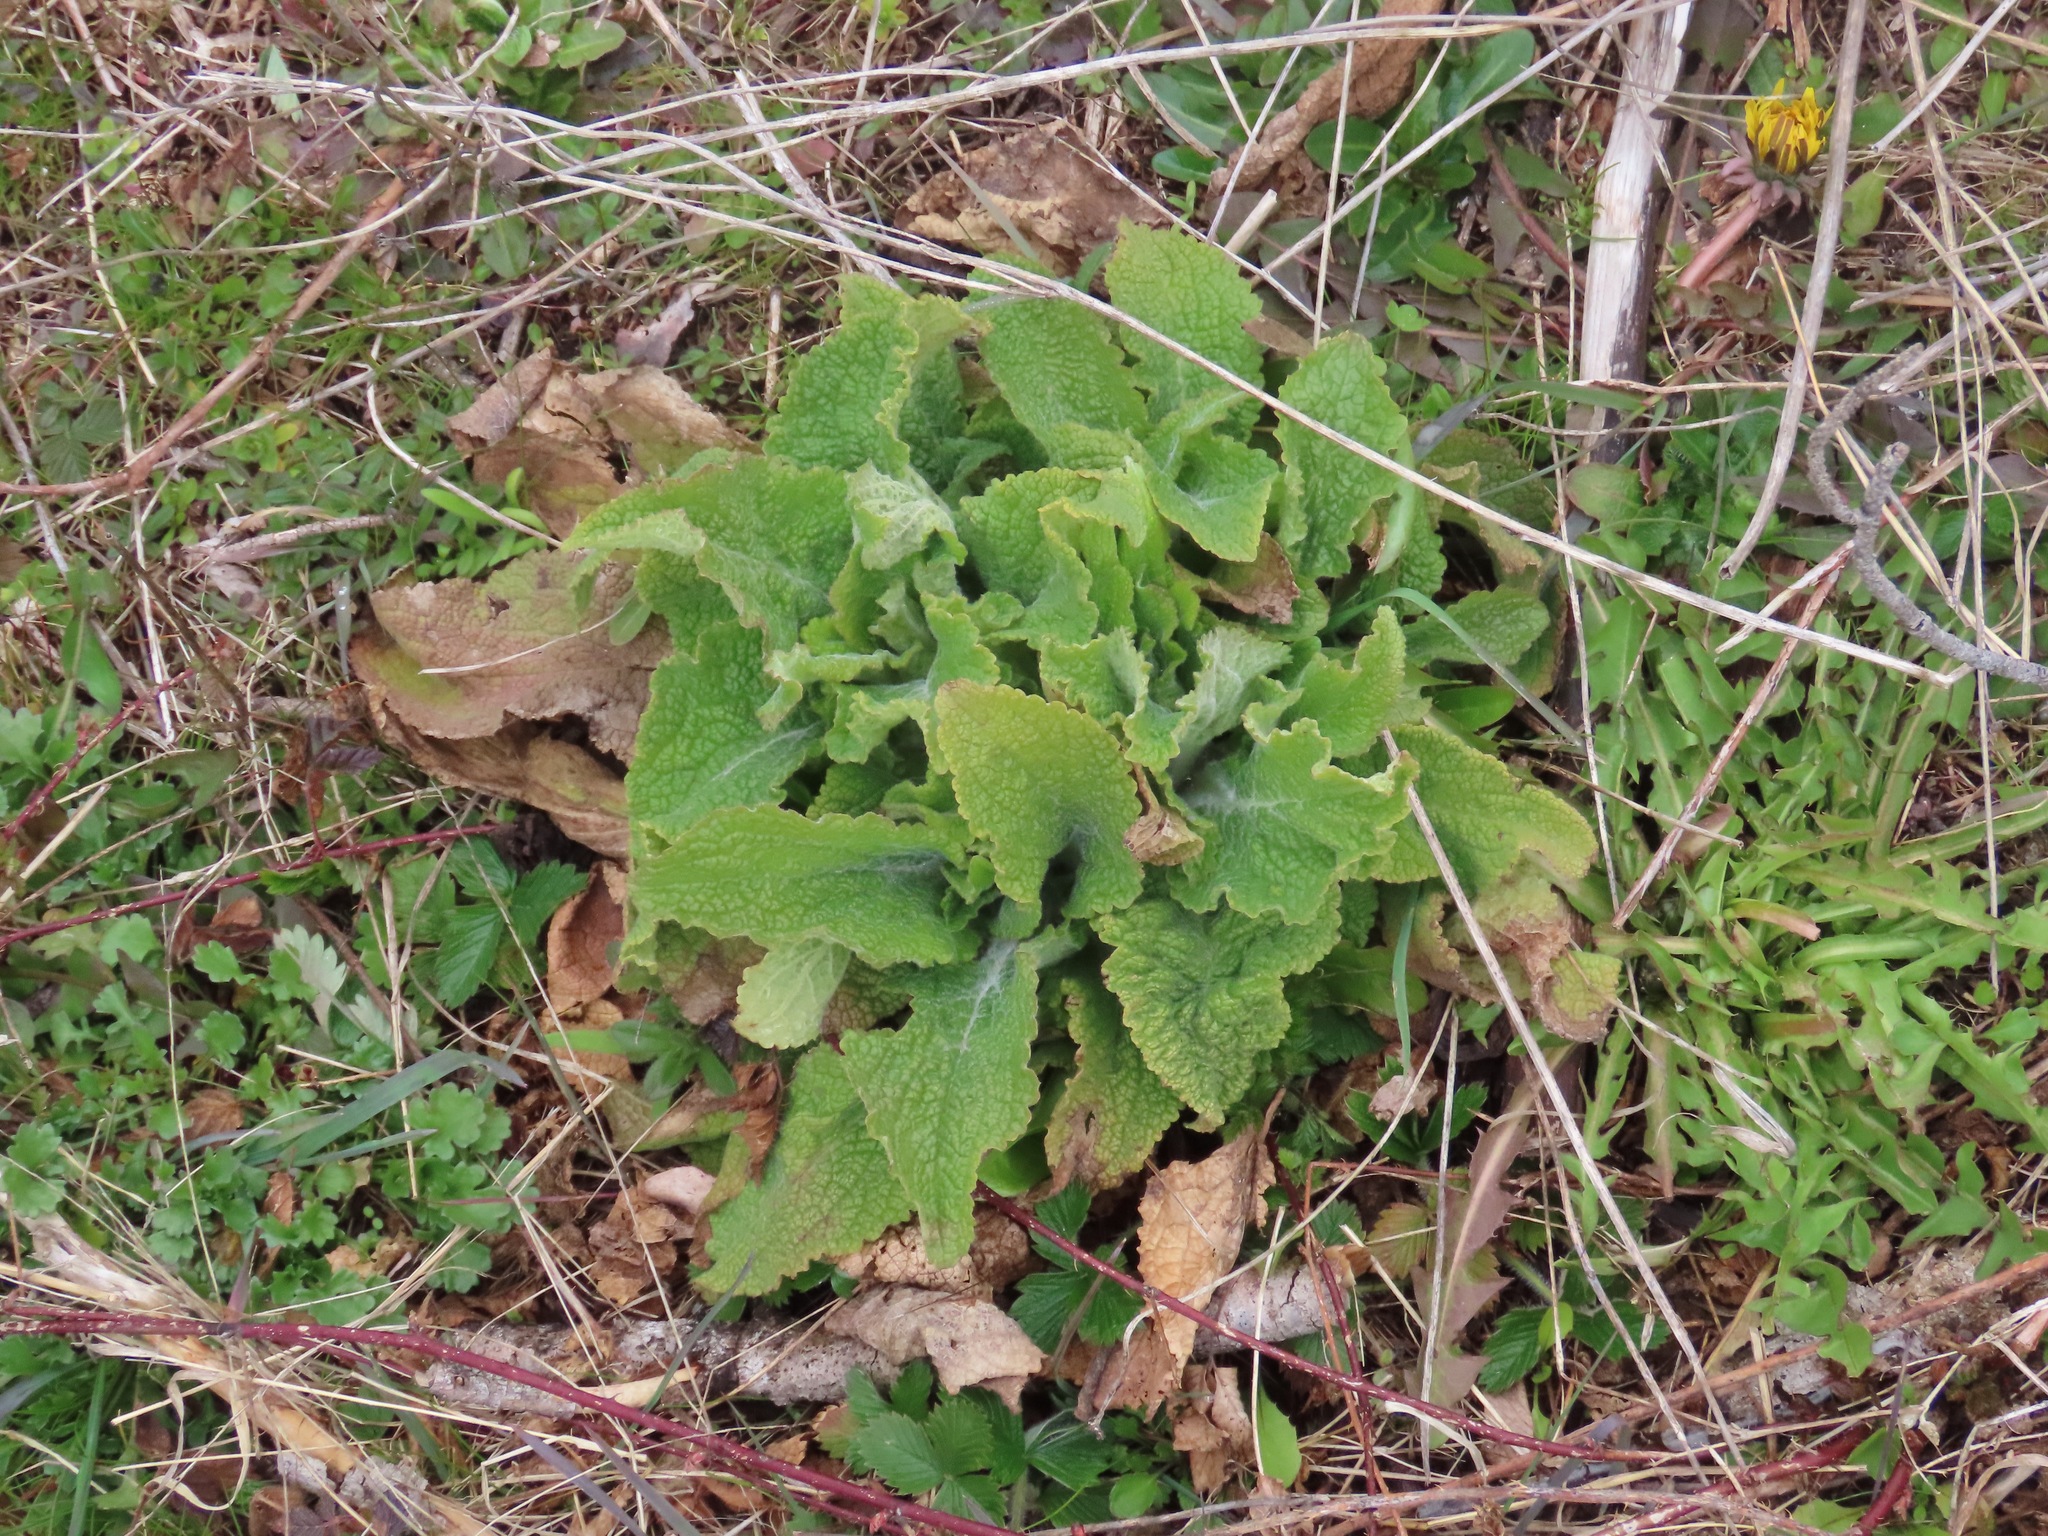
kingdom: Plantae
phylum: Tracheophyta
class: Magnoliopsida
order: Lamiales
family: Plantaginaceae
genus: Digitalis
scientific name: Digitalis purpurea
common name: Foxglove
